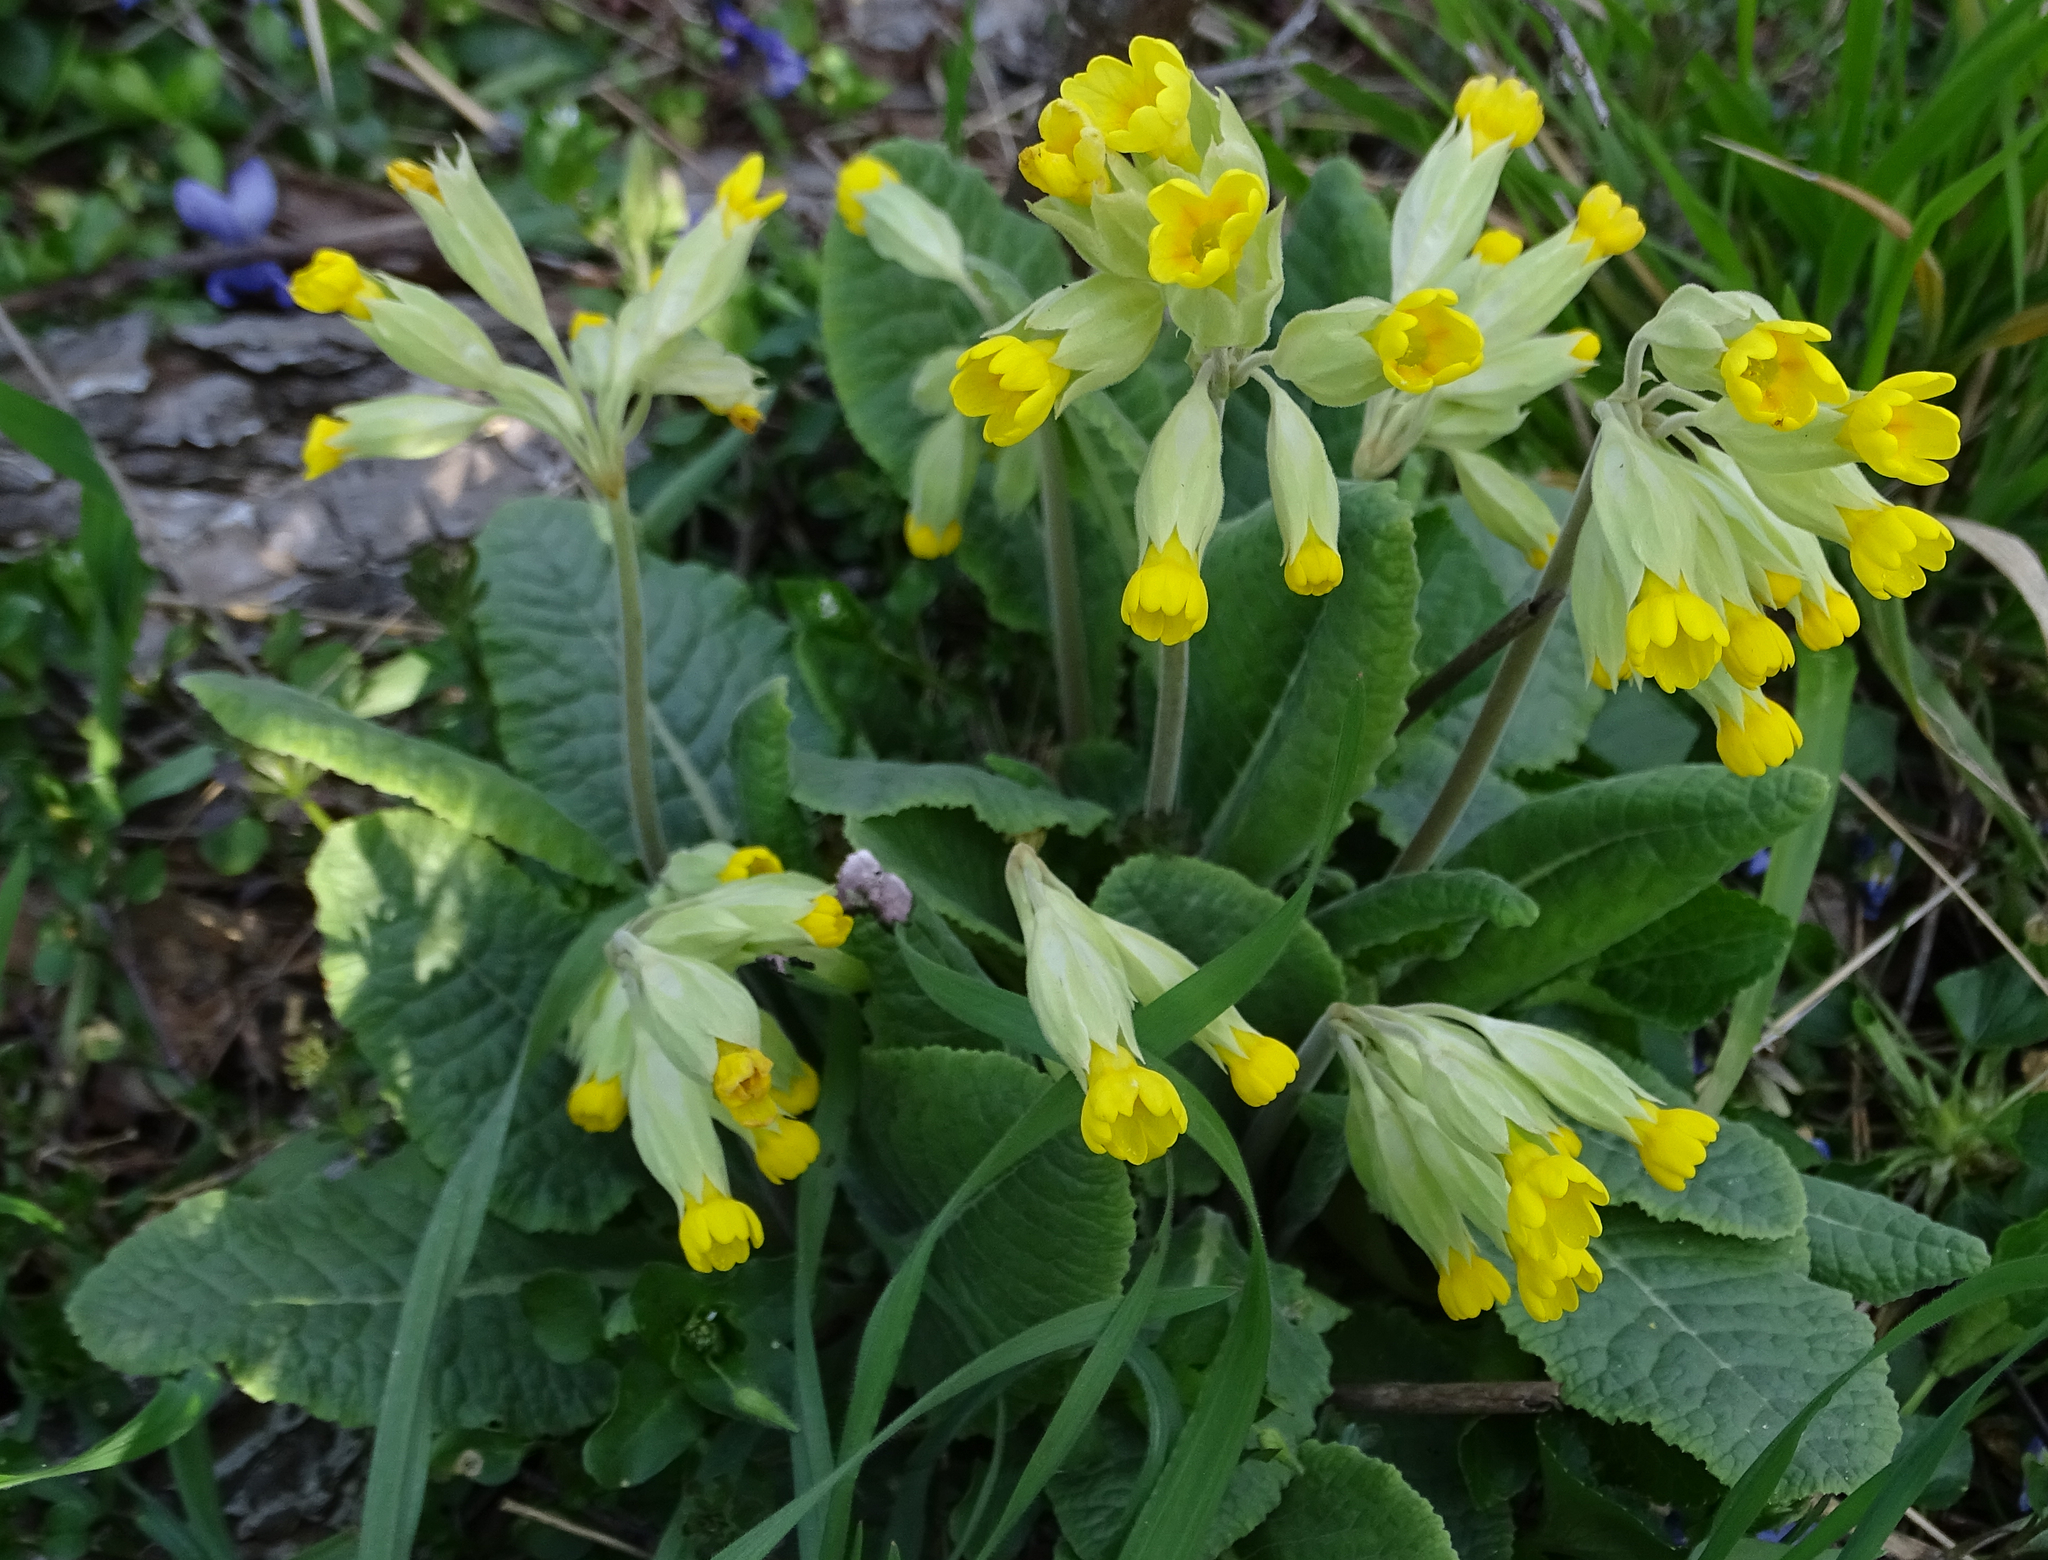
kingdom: Plantae
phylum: Tracheophyta
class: Magnoliopsida
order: Ericales
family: Primulaceae
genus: Primula
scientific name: Primula veris
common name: Cowslip
